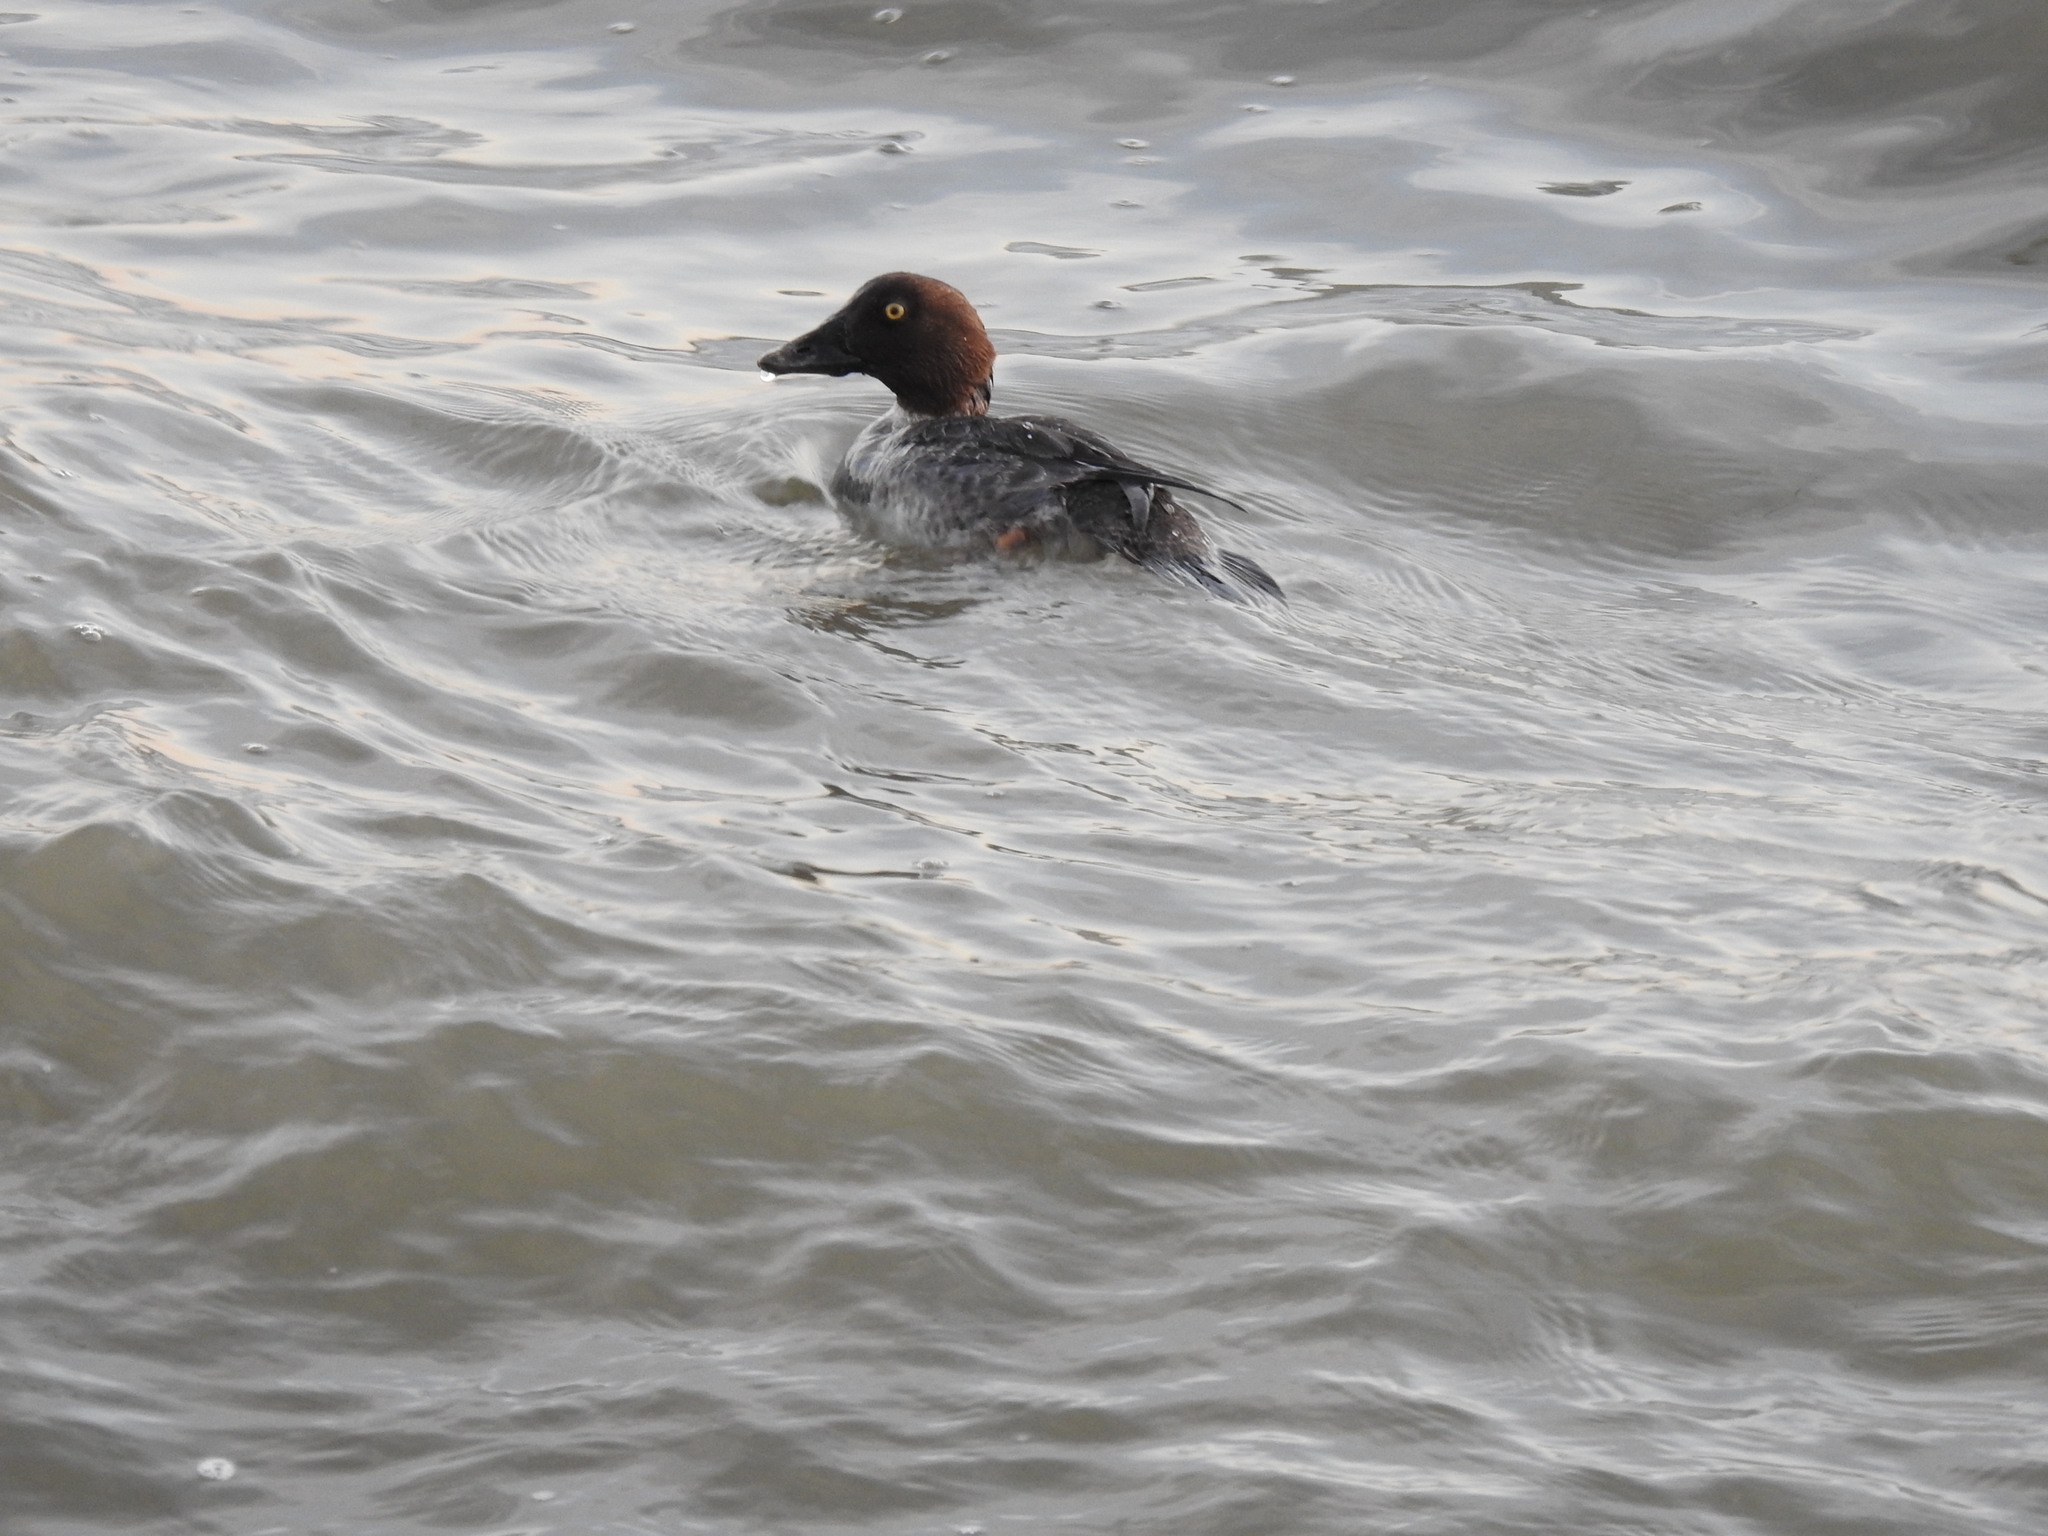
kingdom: Animalia
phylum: Chordata
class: Aves
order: Anseriformes
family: Anatidae
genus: Bucephala
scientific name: Bucephala clangula
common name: Common goldeneye
